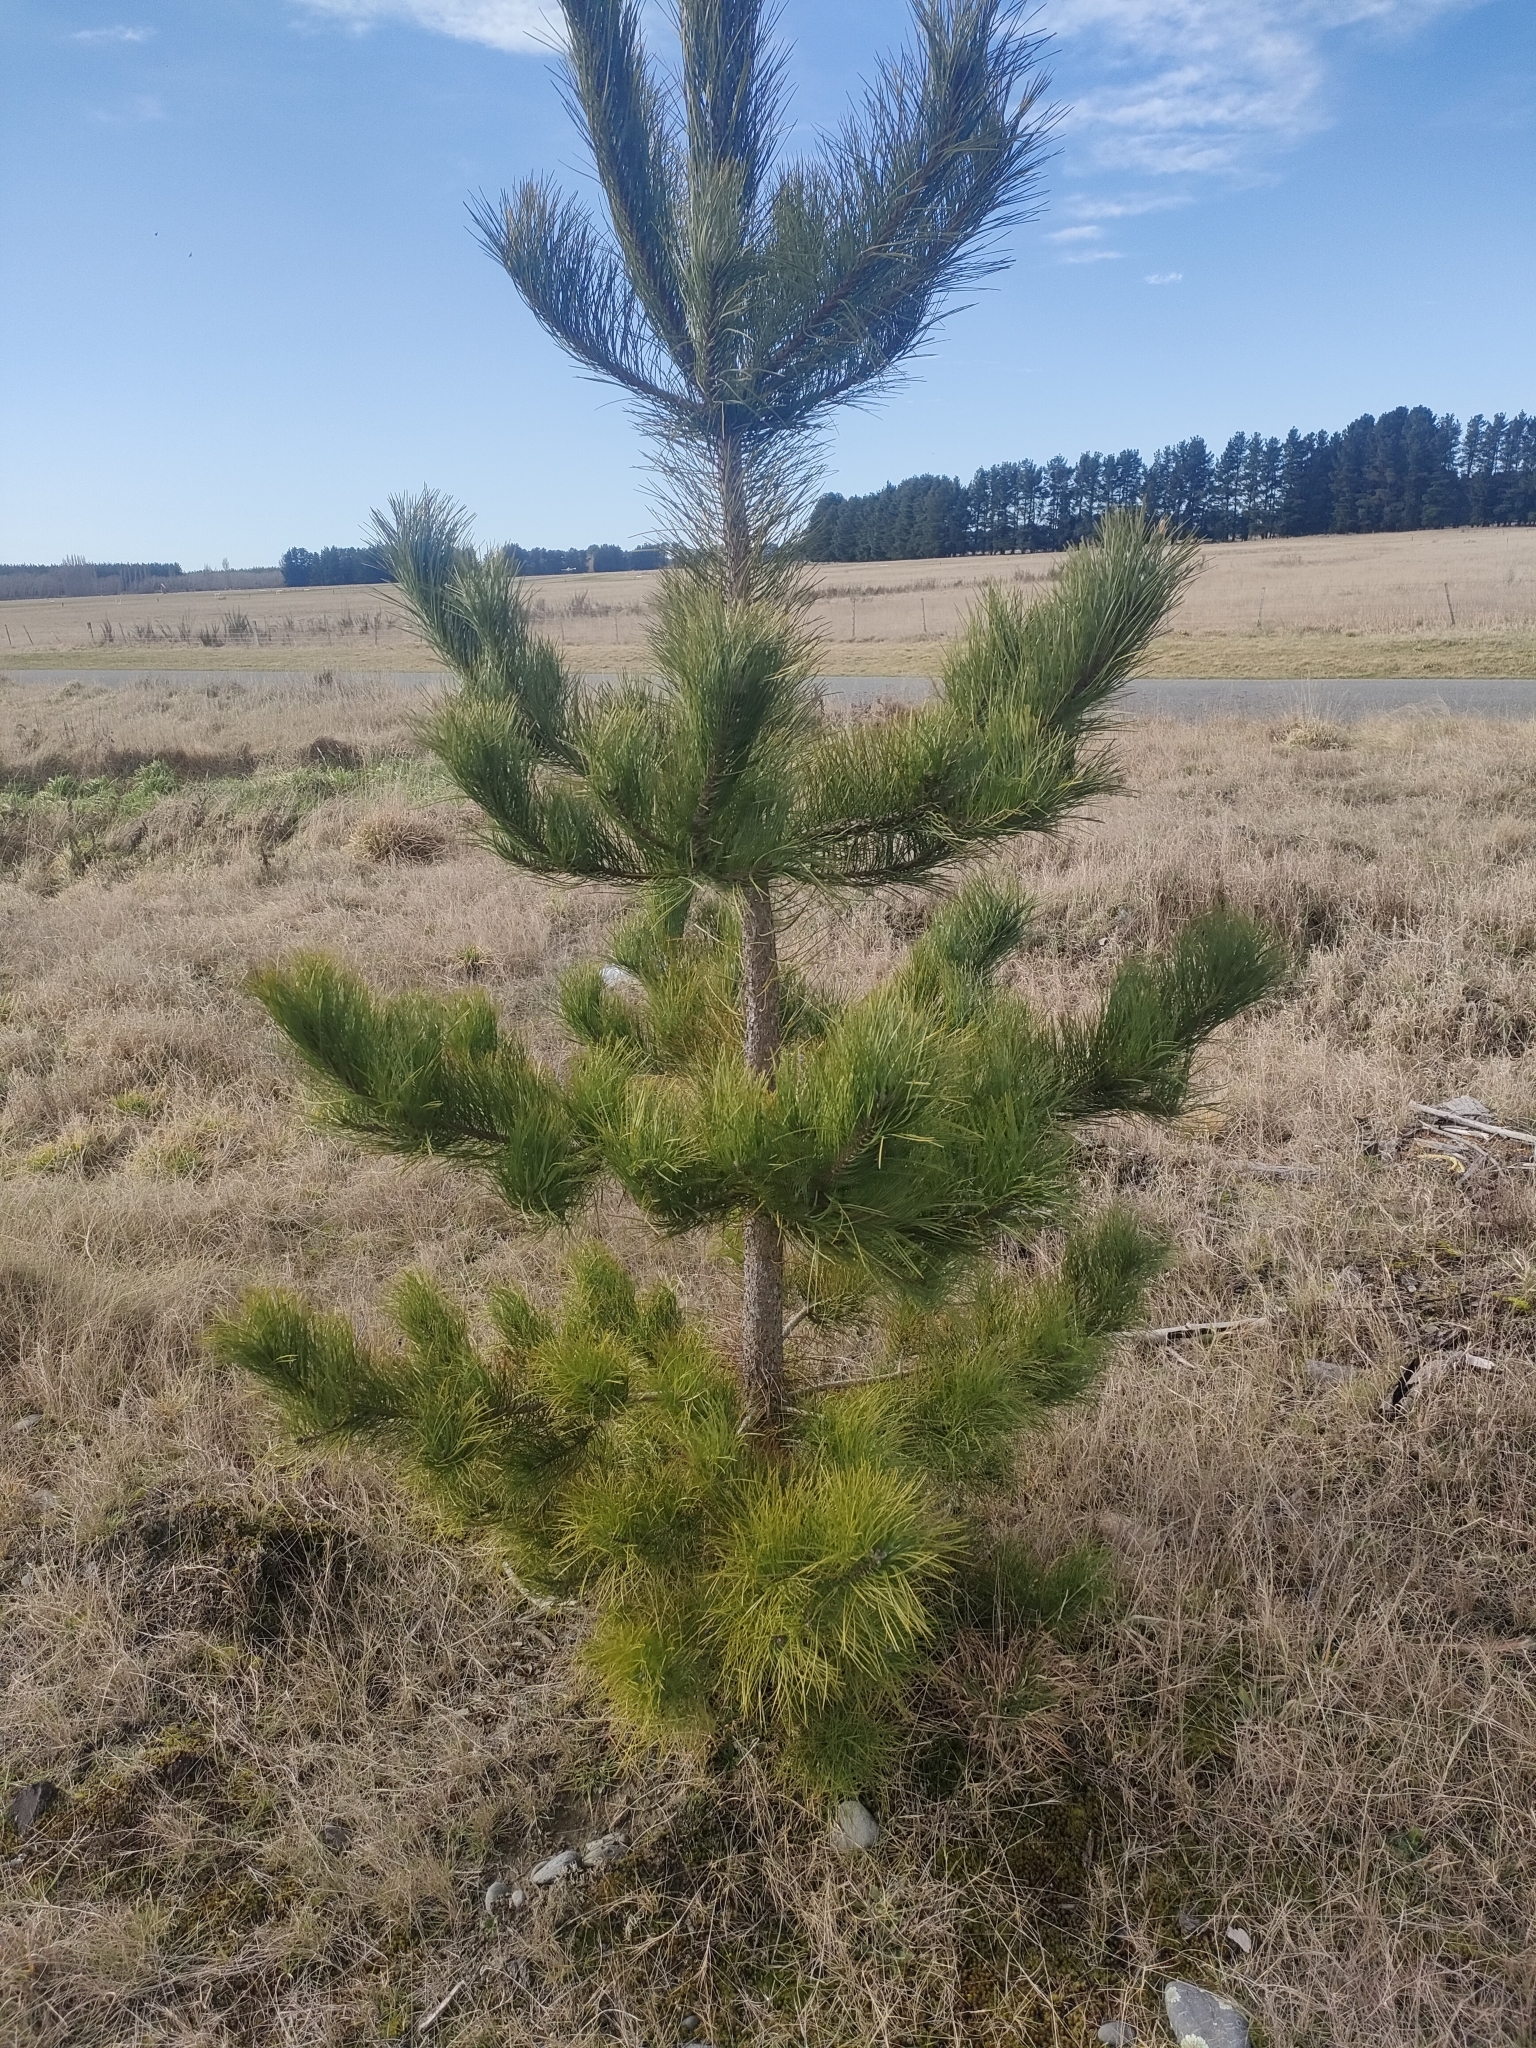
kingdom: Plantae
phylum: Tracheophyta
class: Pinopsida
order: Pinales
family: Pinaceae
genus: Pinus
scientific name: Pinus nigra
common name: Austrian pine
